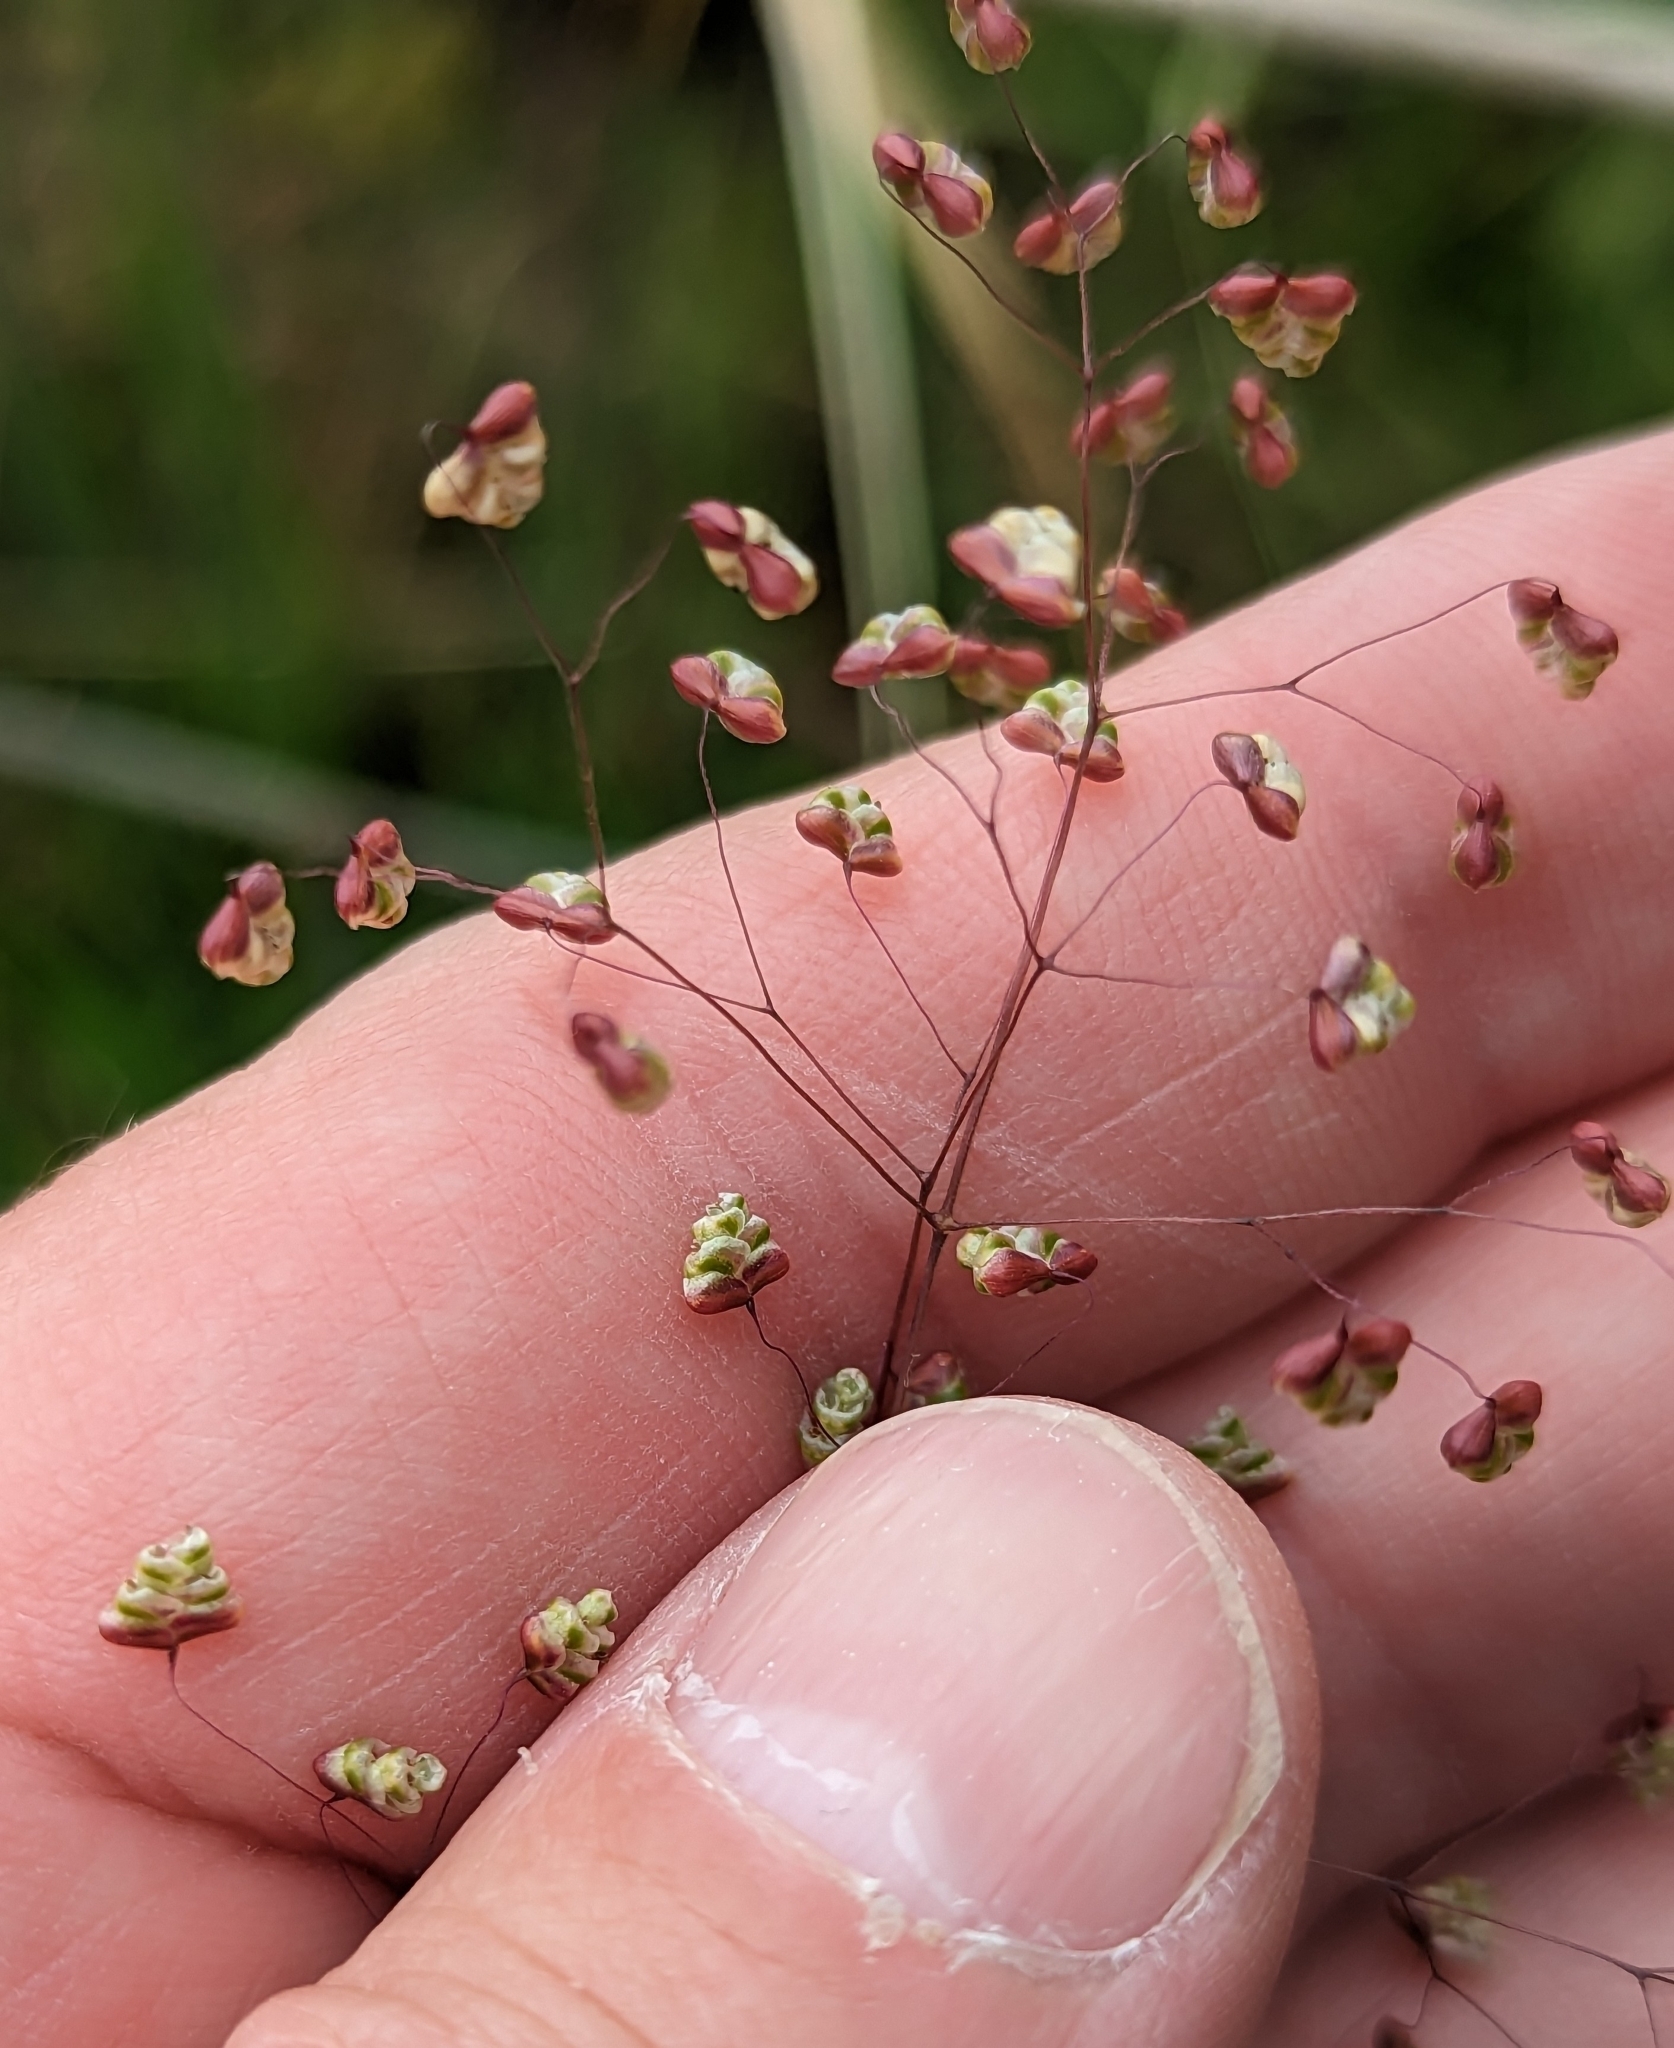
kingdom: Plantae
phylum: Tracheophyta
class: Liliopsida
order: Poales
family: Poaceae
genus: Briza
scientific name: Briza minor
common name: Lesser quaking-grass
